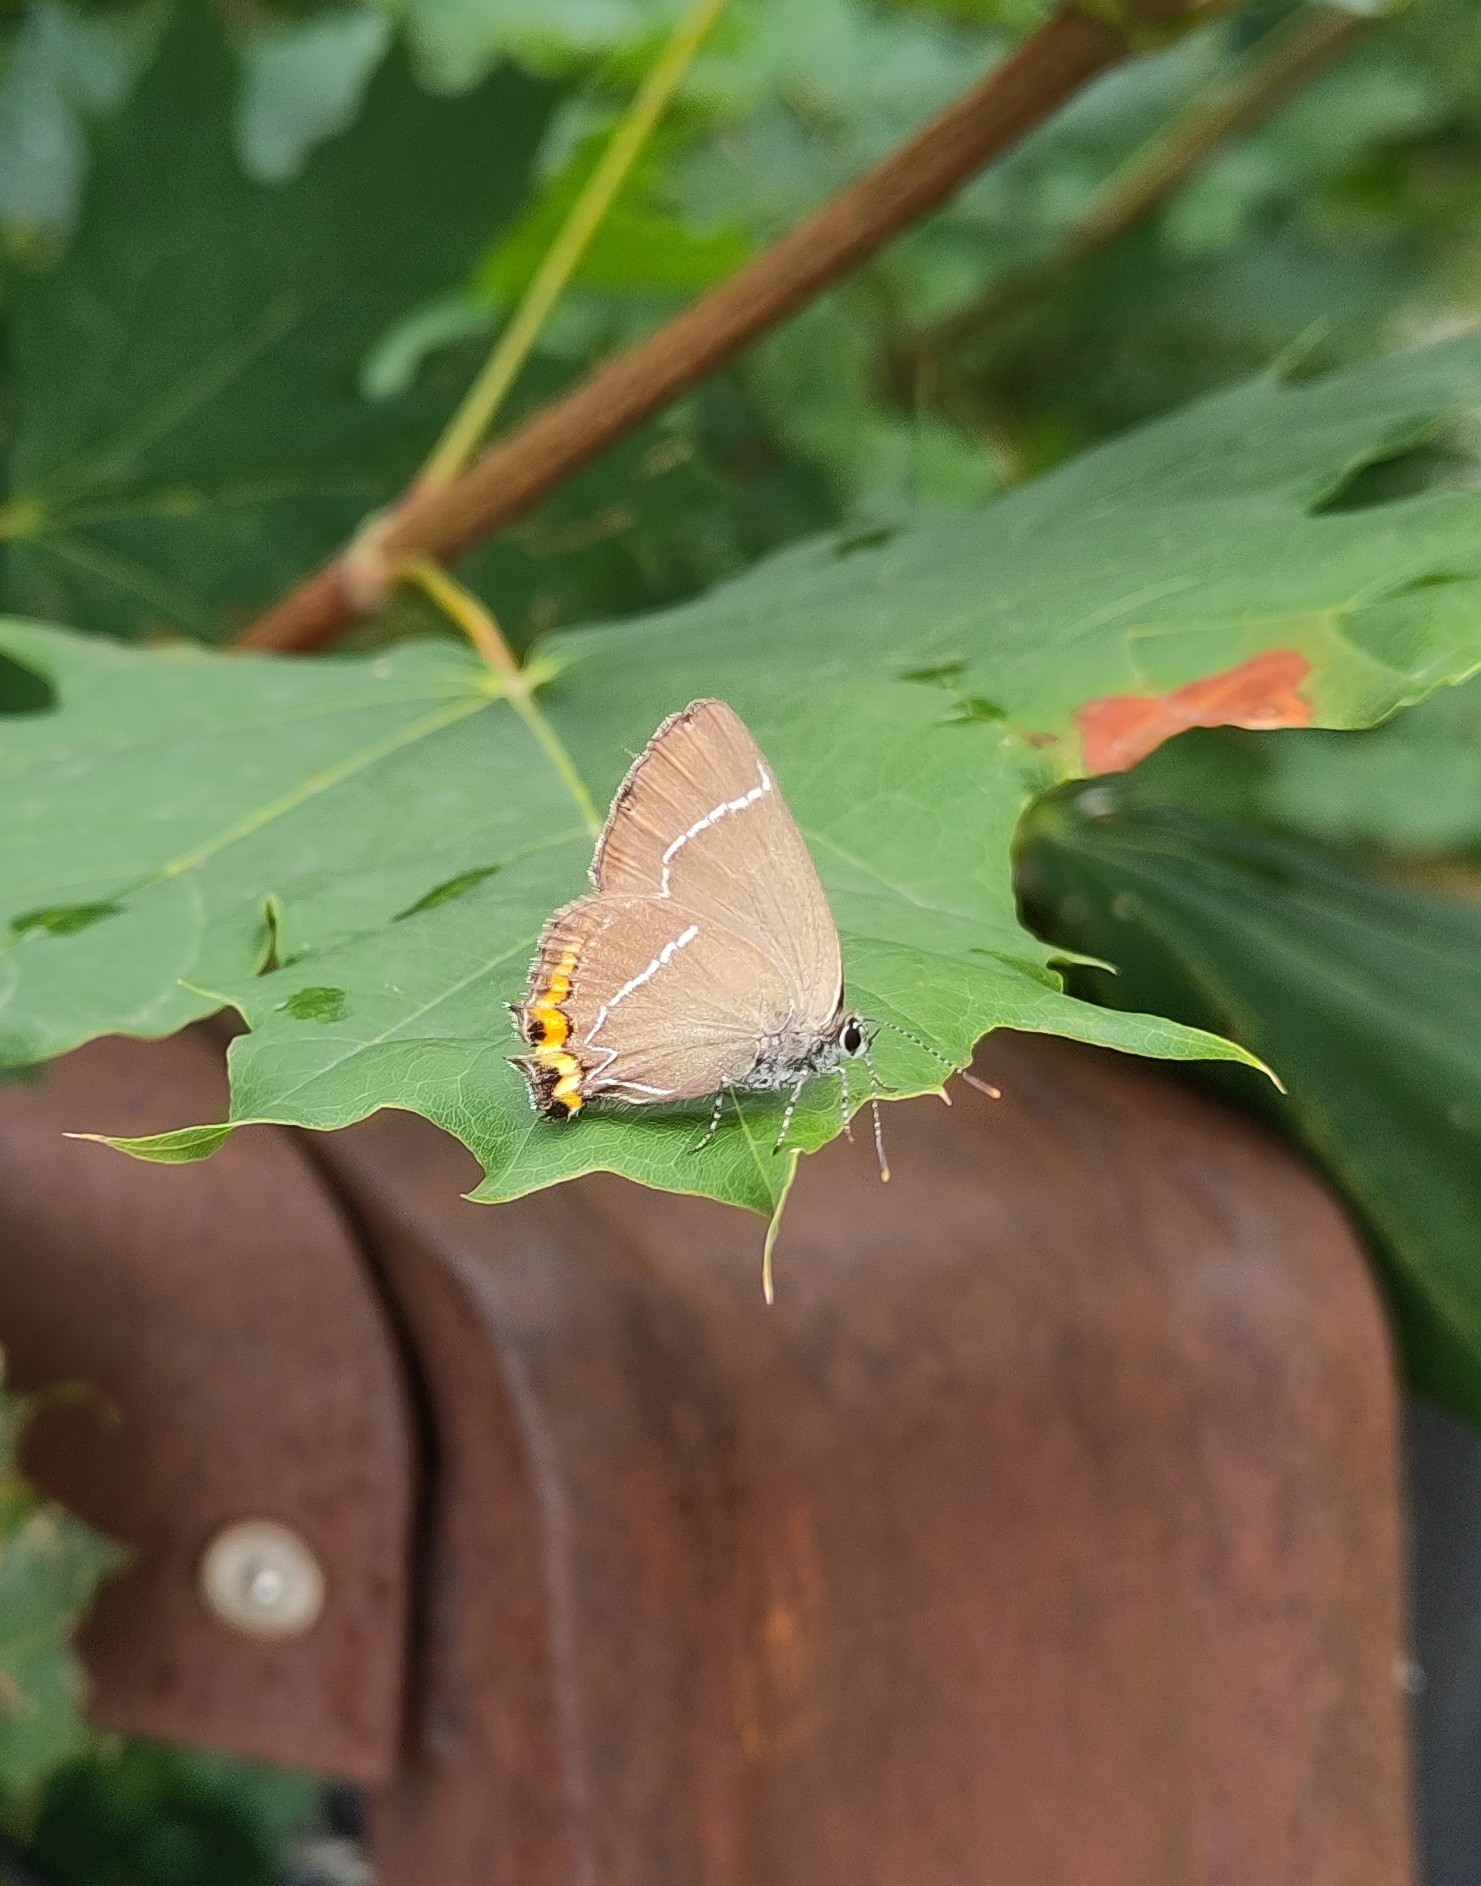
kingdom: Animalia
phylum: Arthropoda
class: Insecta
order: Lepidoptera
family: Lycaenidae
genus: Satyrium
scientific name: Satyrium w-album
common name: White-letter hairstreak
